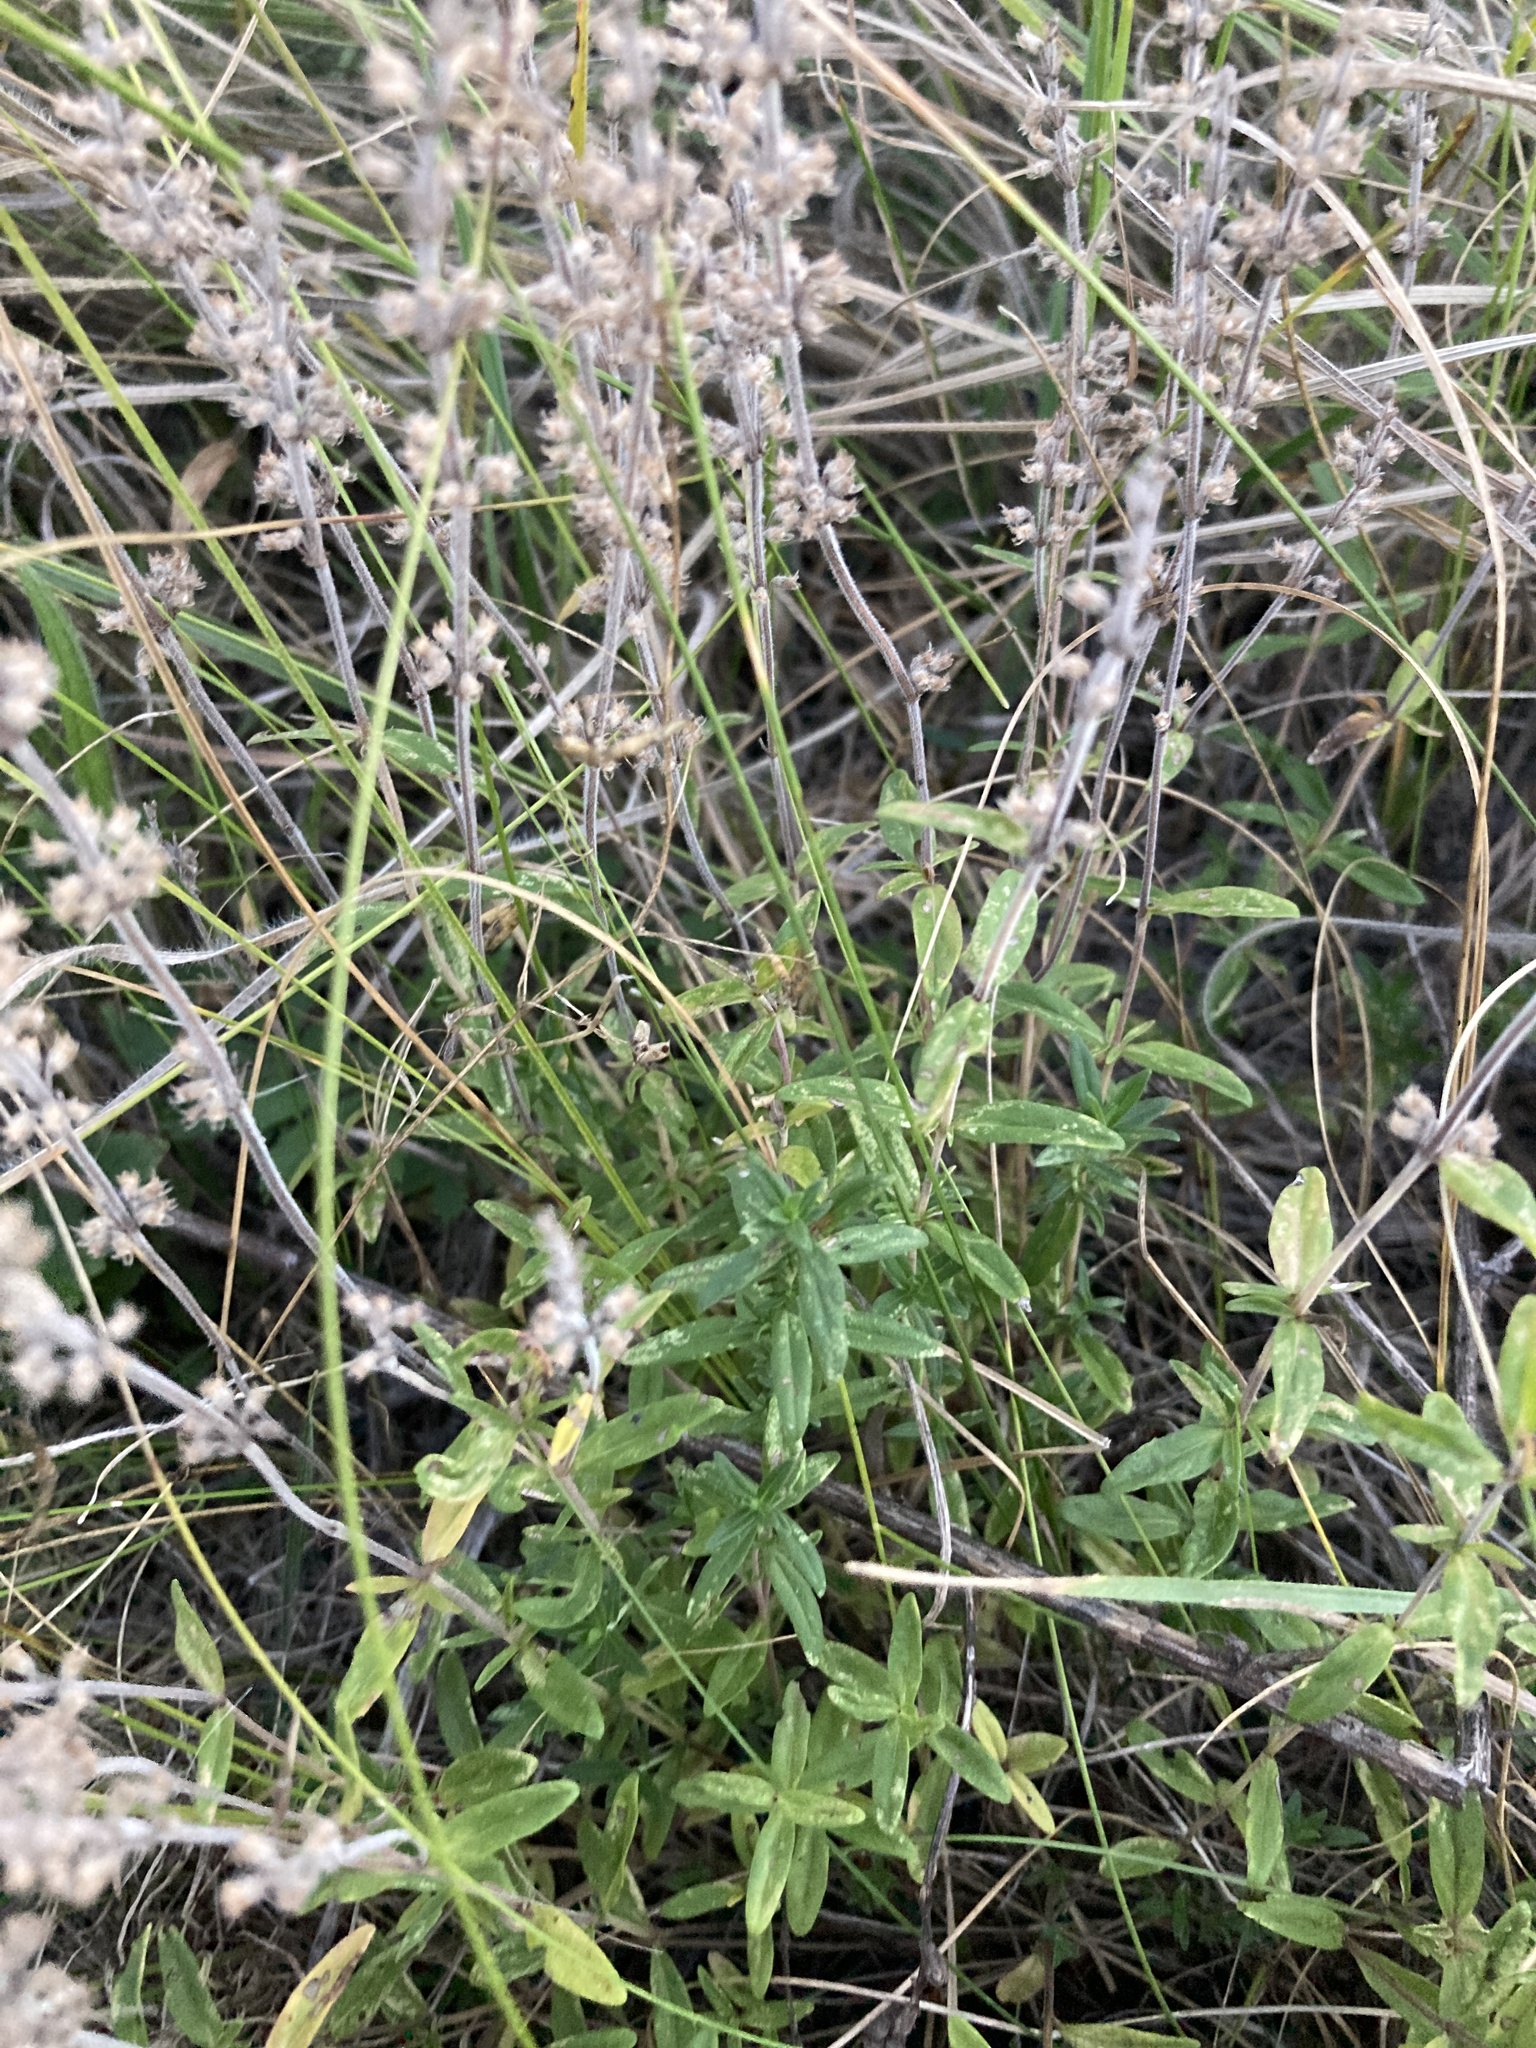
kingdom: Plantae
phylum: Tracheophyta
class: Magnoliopsida
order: Lamiales
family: Lamiaceae
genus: Thymus
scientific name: Thymus pannonicus
